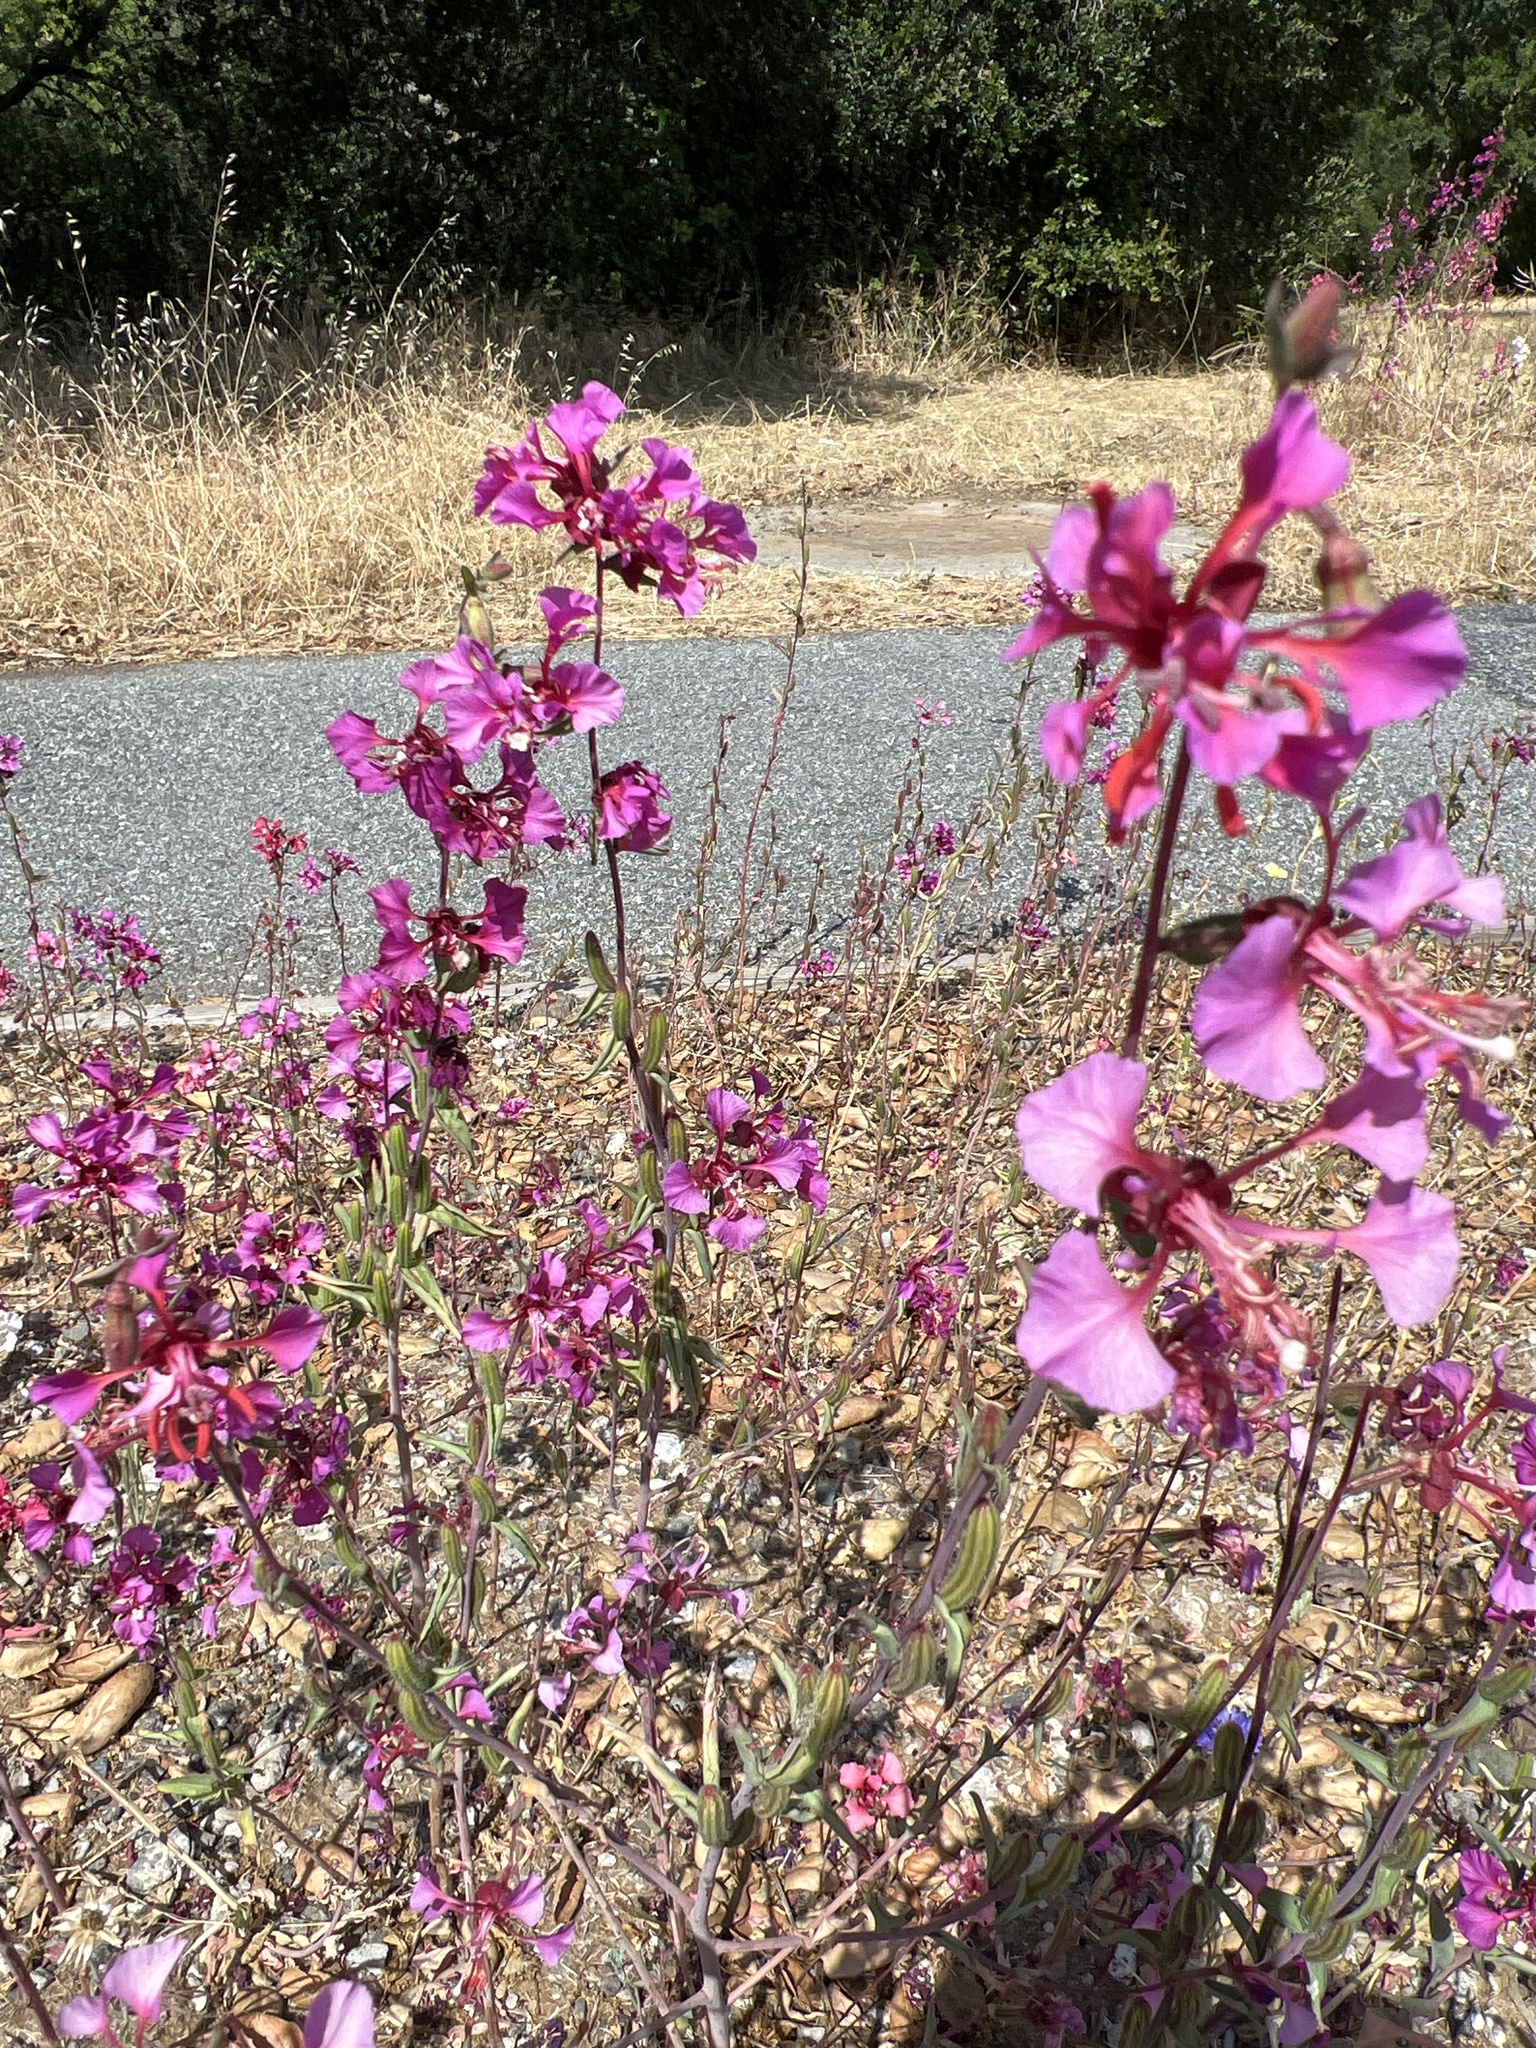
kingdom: Plantae
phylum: Tracheophyta
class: Magnoliopsida
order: Myrtales
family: Onagraceae
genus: Clarkia
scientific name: Clarkia unguiculata
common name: Clarkia
